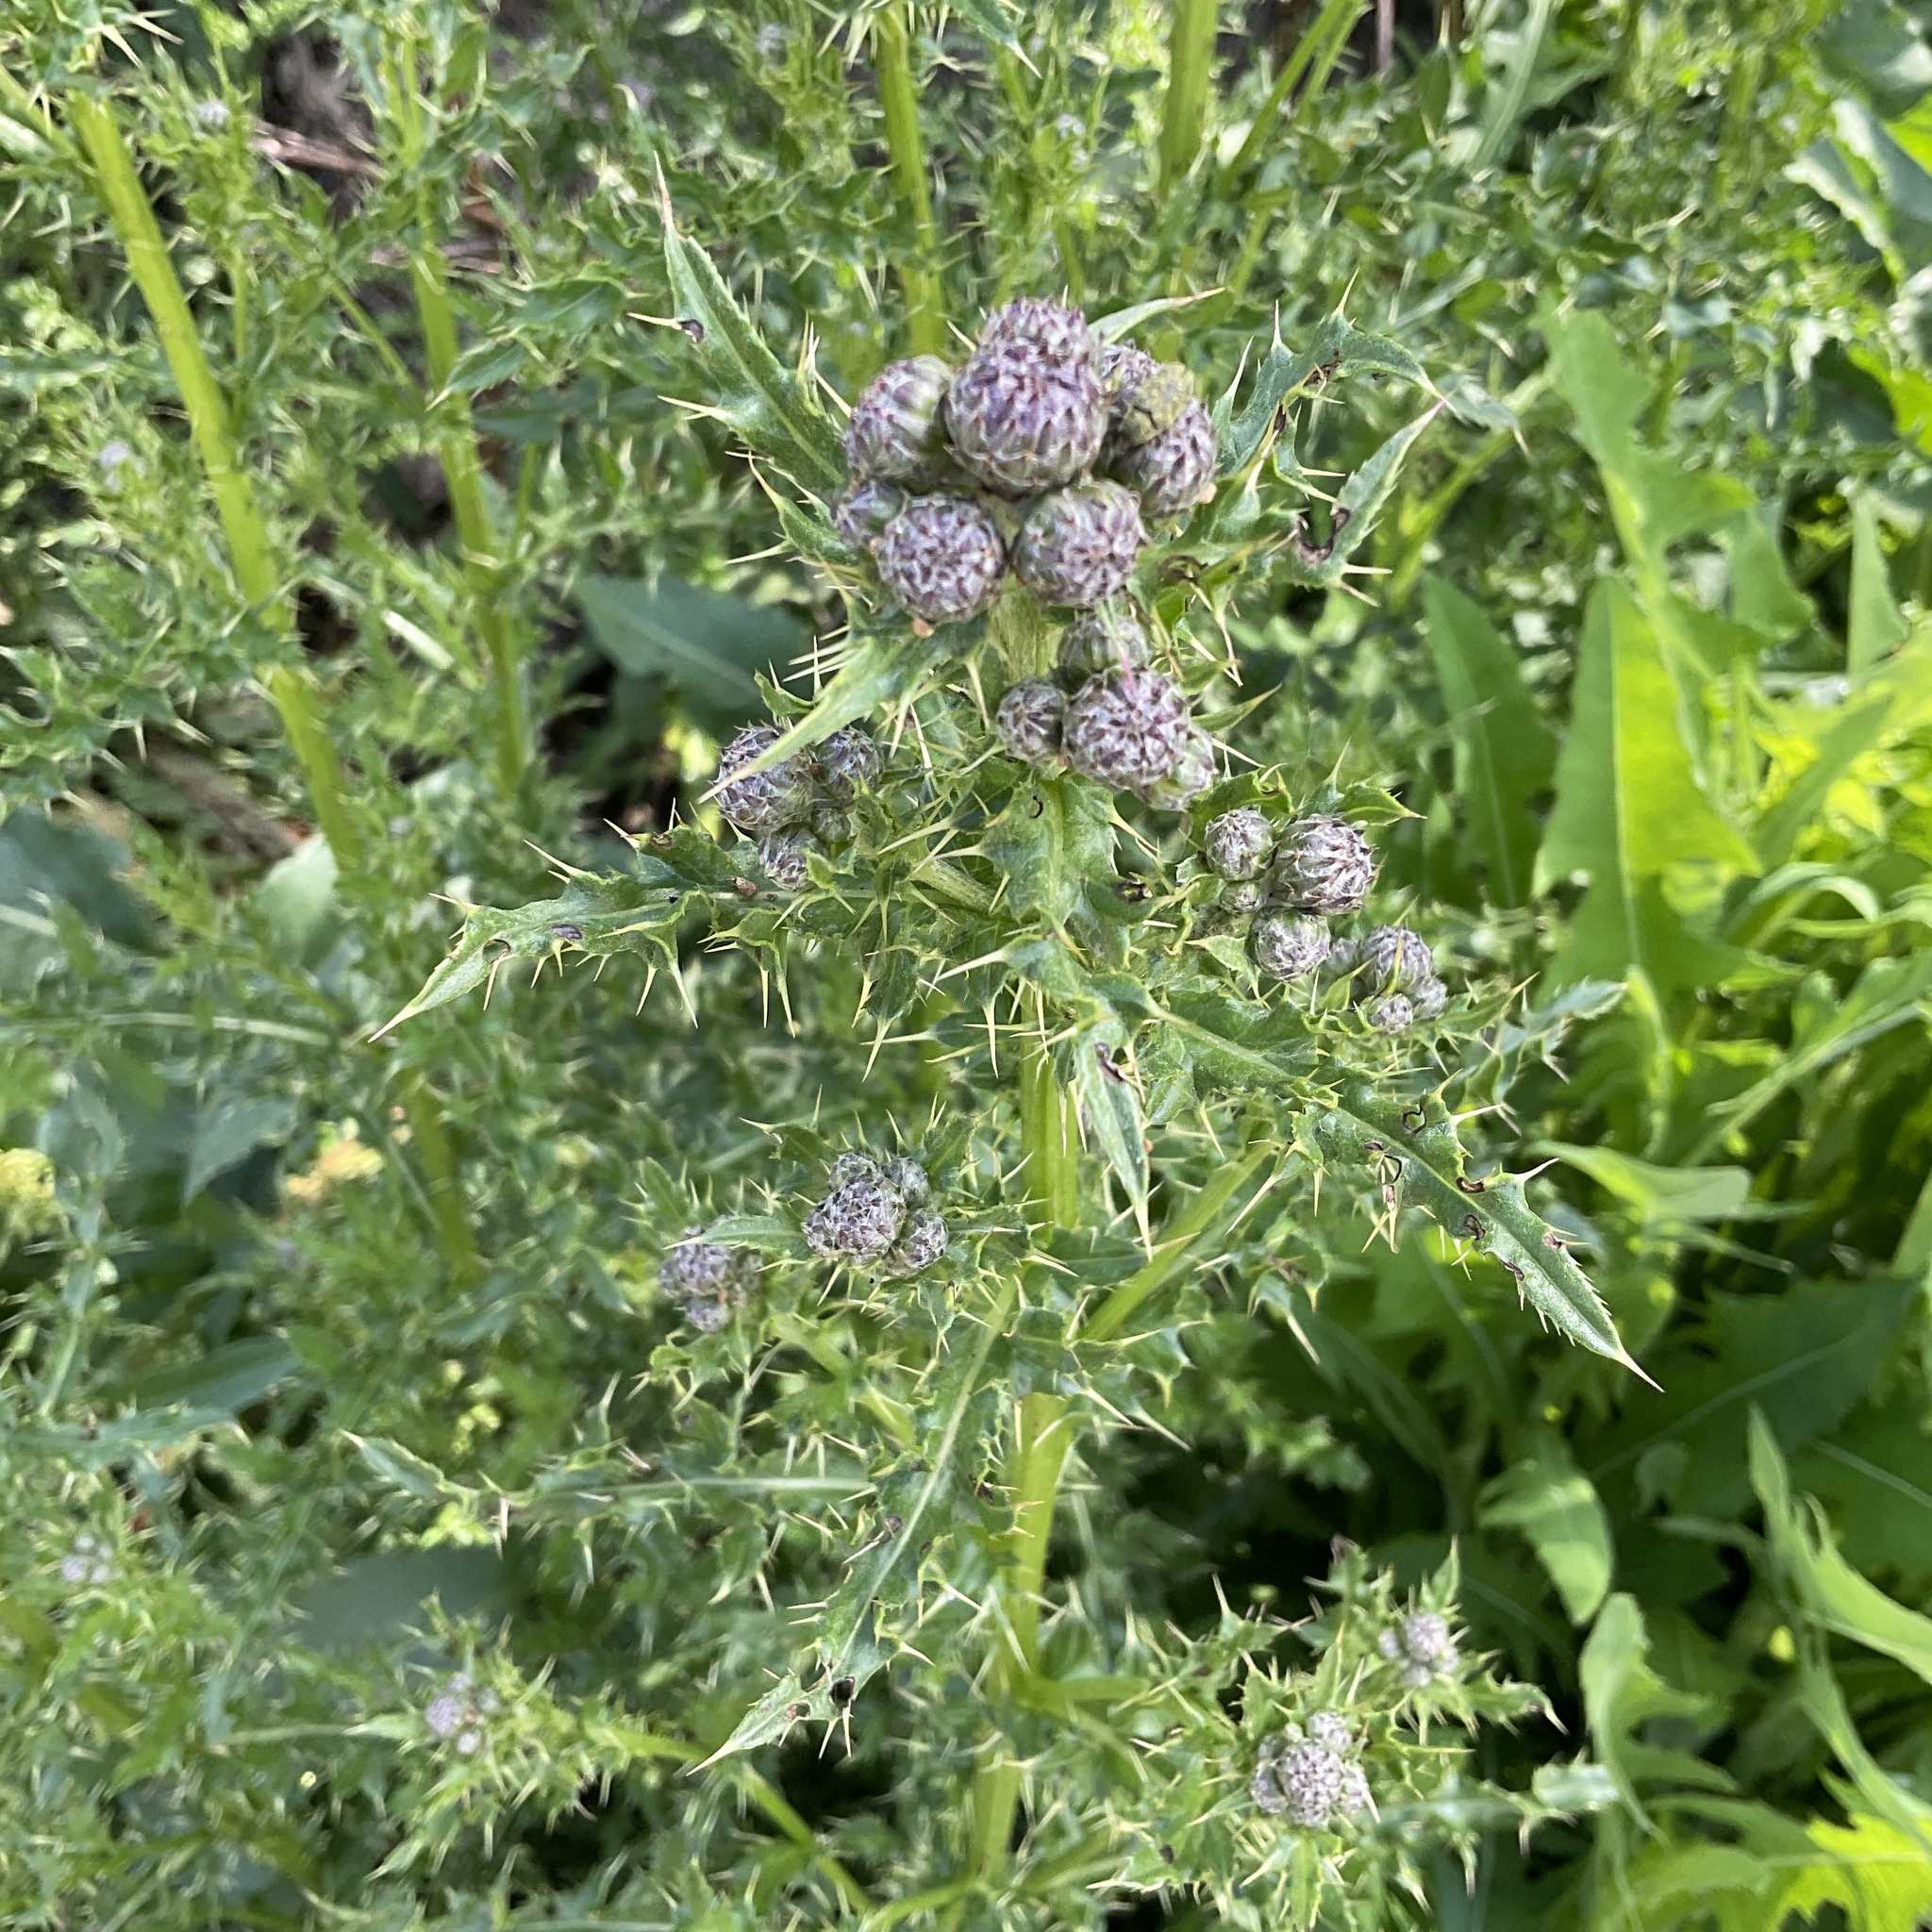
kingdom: Plantae
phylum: Tracheophyta
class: Magnoliopsida
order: Asterales
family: Asteraceae
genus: Cirsium
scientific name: Cirsium arvense
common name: Creeping thistle
